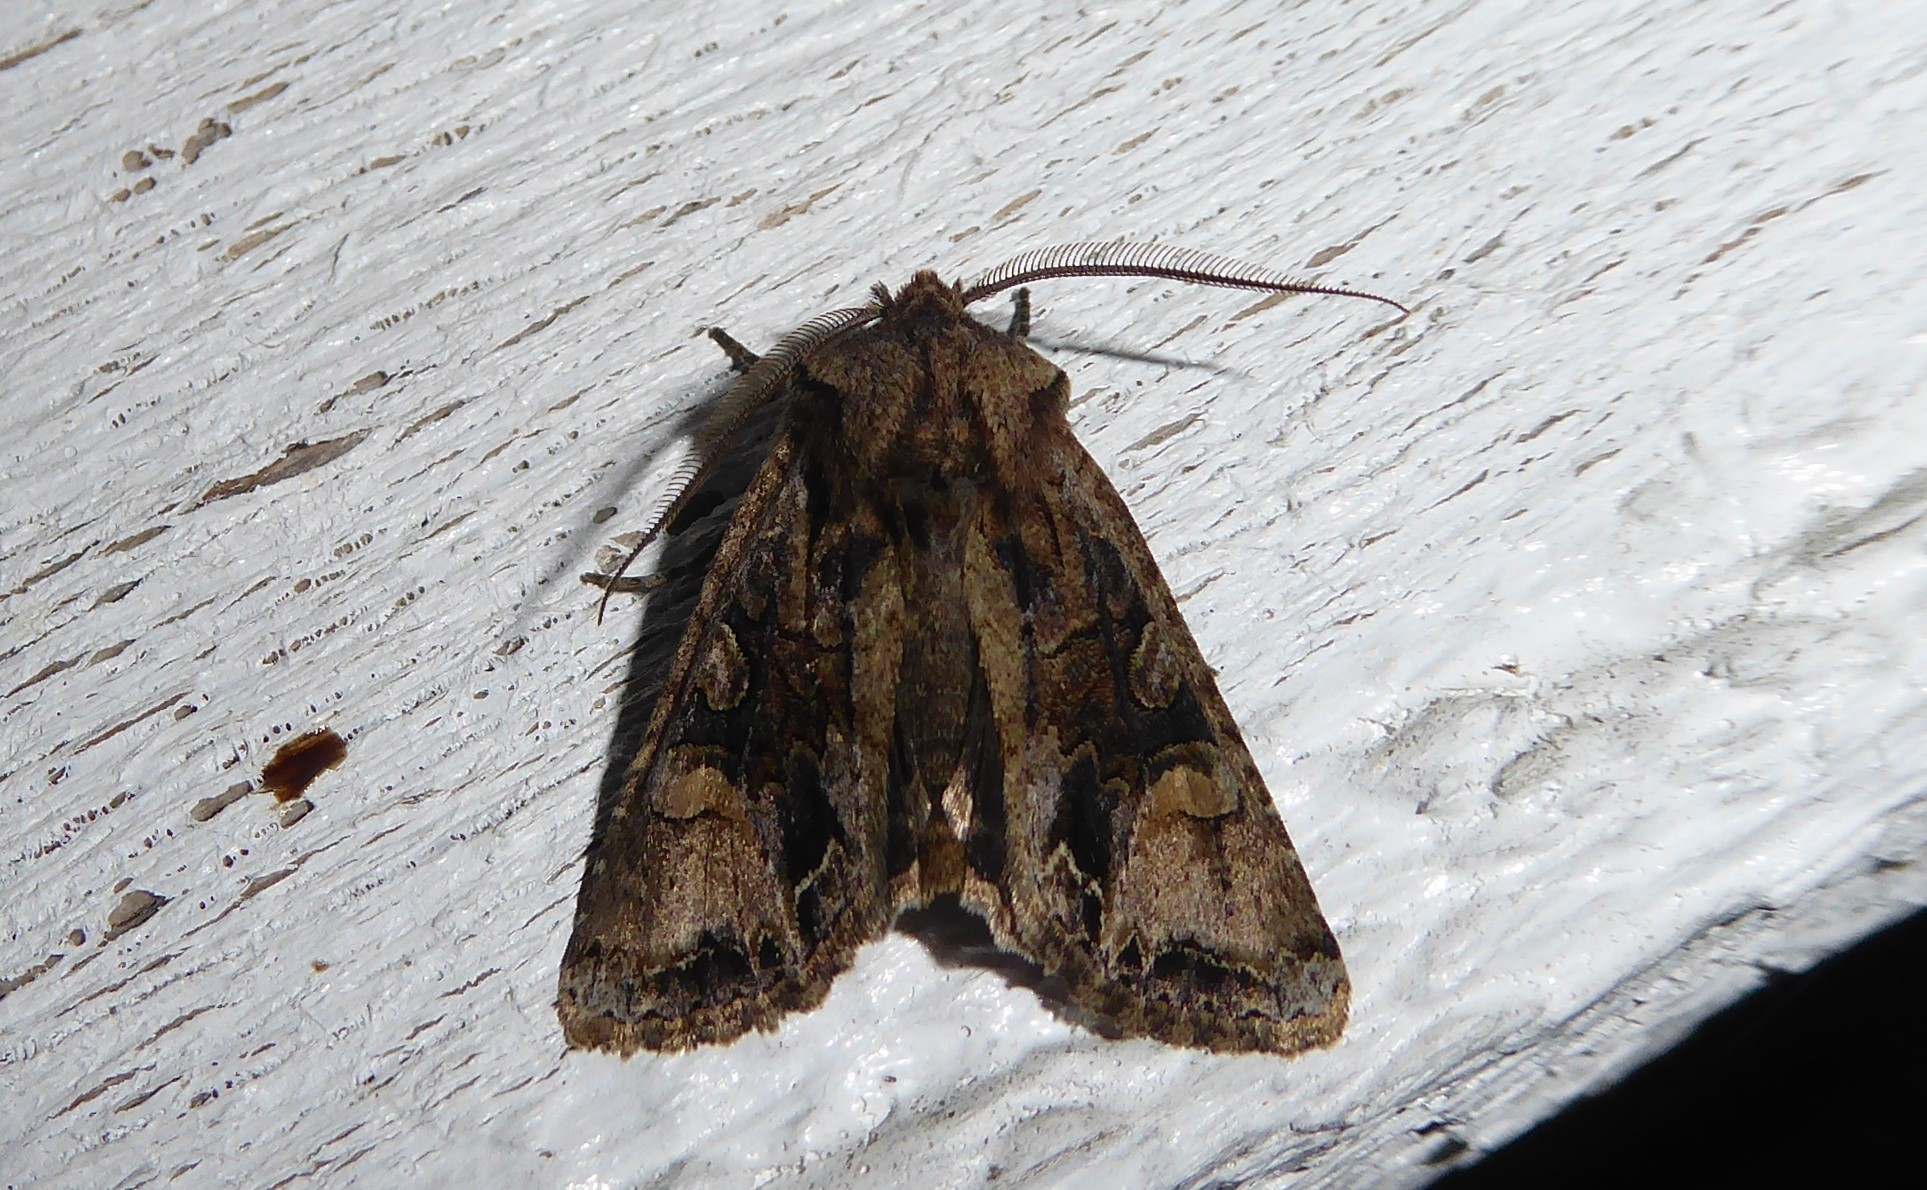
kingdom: Animalia
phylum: Arthropoda
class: Insecta
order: Lepidoptera
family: Noctuidae
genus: Ichneutica
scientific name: Ichneutica skelloni
